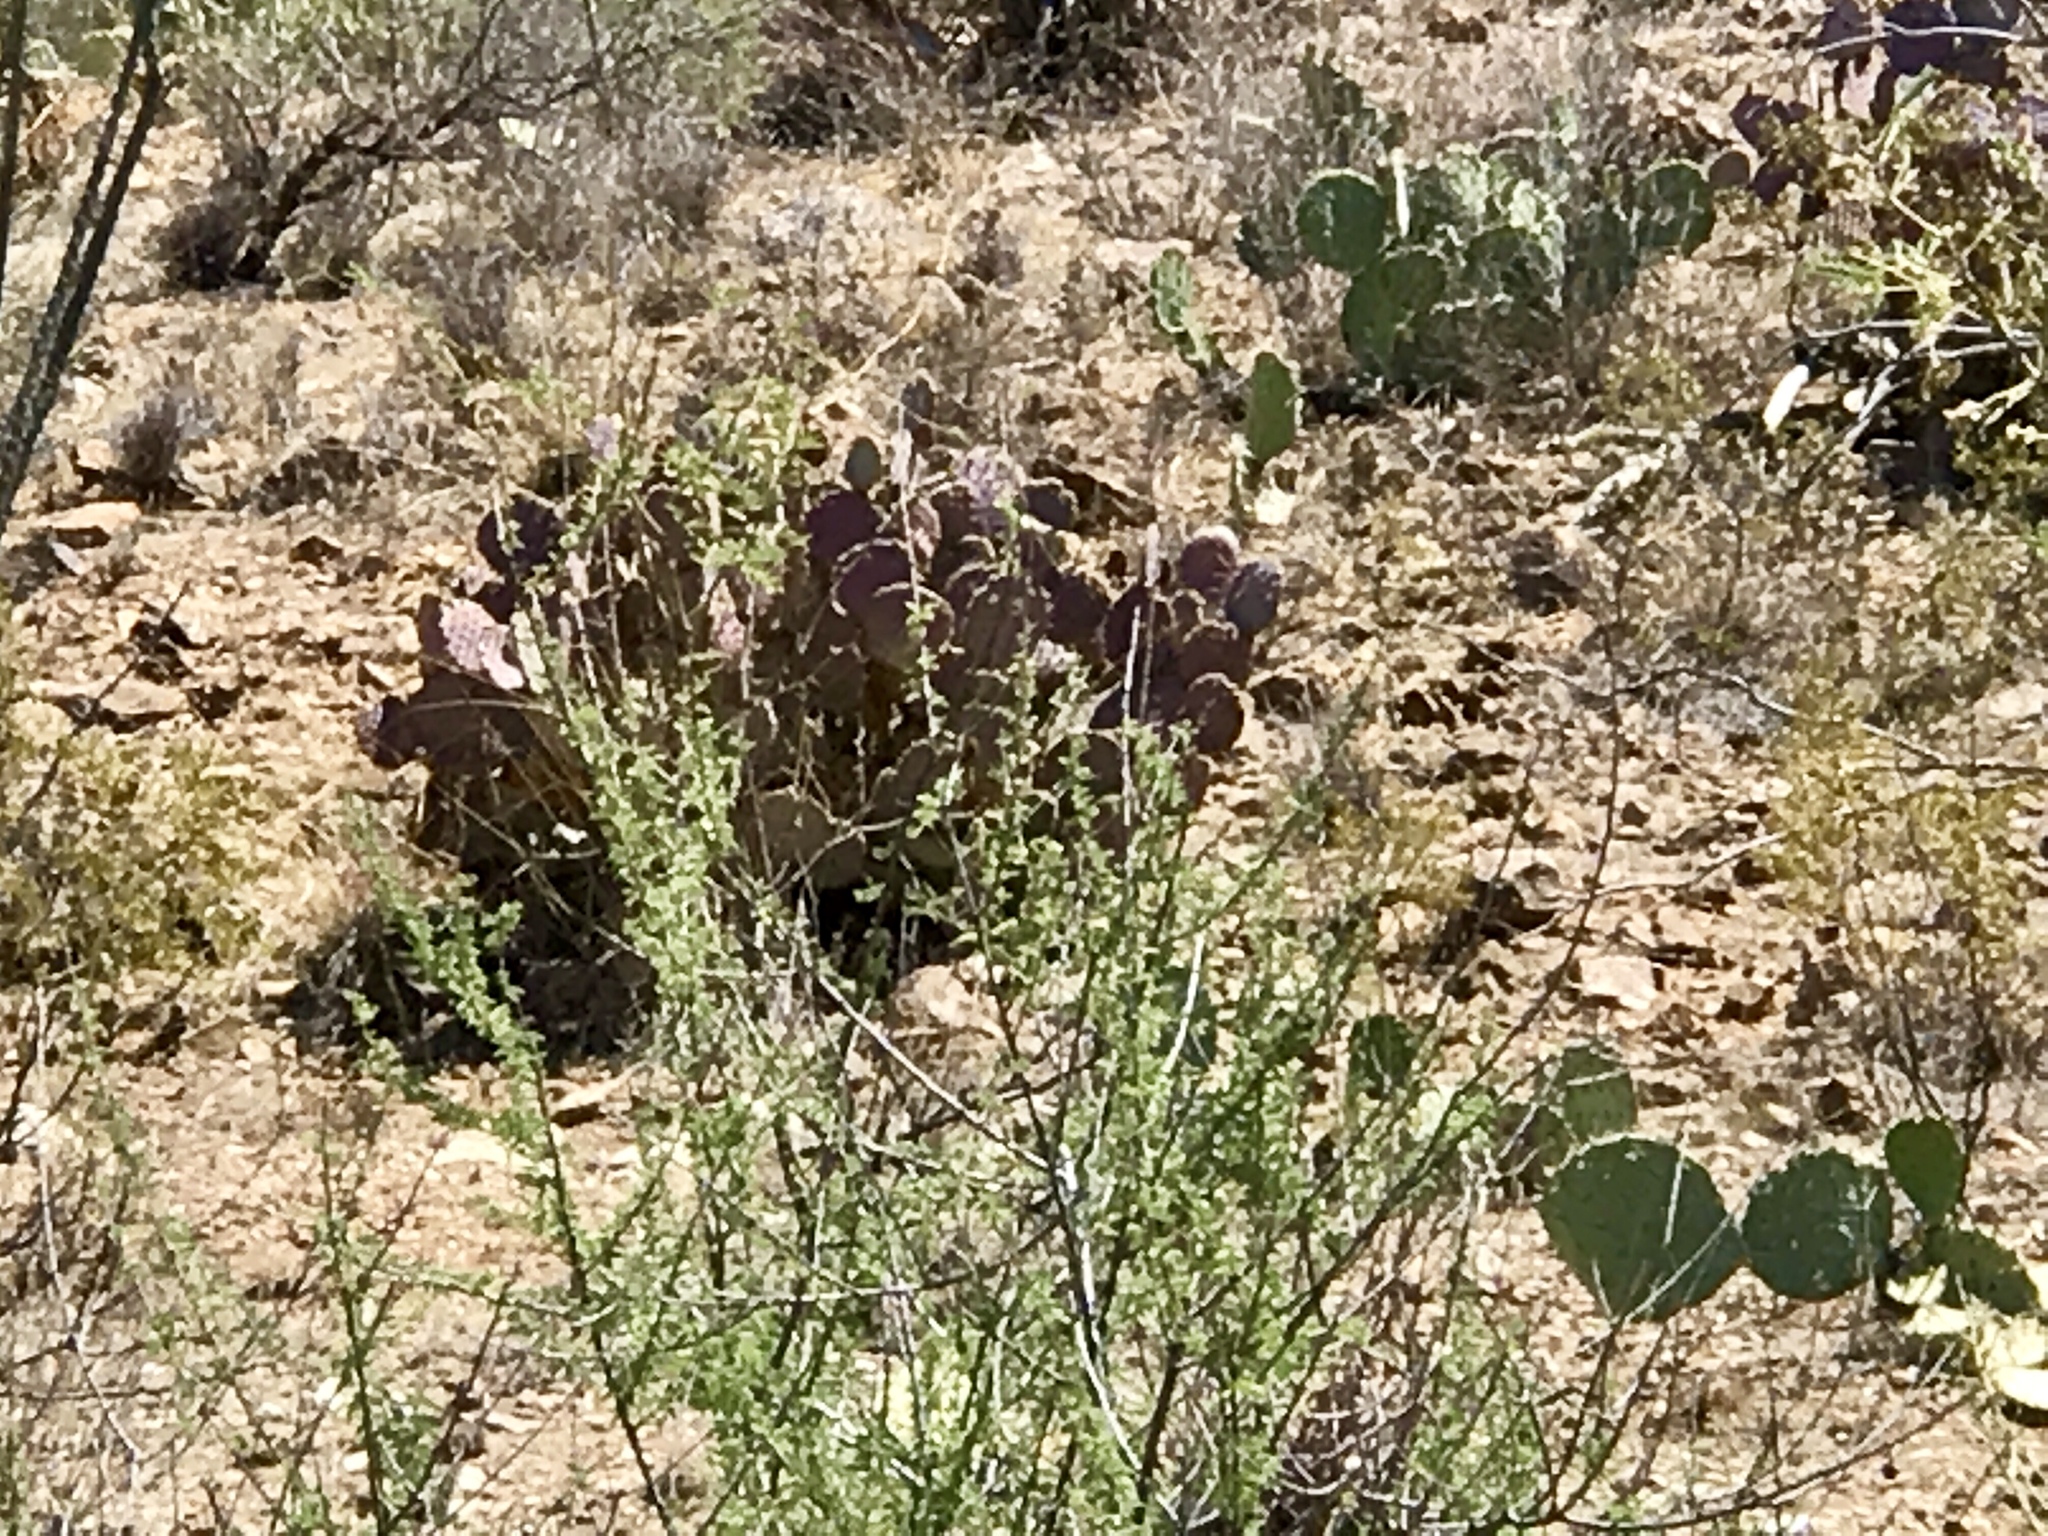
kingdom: Plantae
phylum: Tracheophyta
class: Magnoliopsida
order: Caryophyllales
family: Cactaceae
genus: Opuntia
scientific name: Opuntia gosseliniana
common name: Violet prickly-pear
